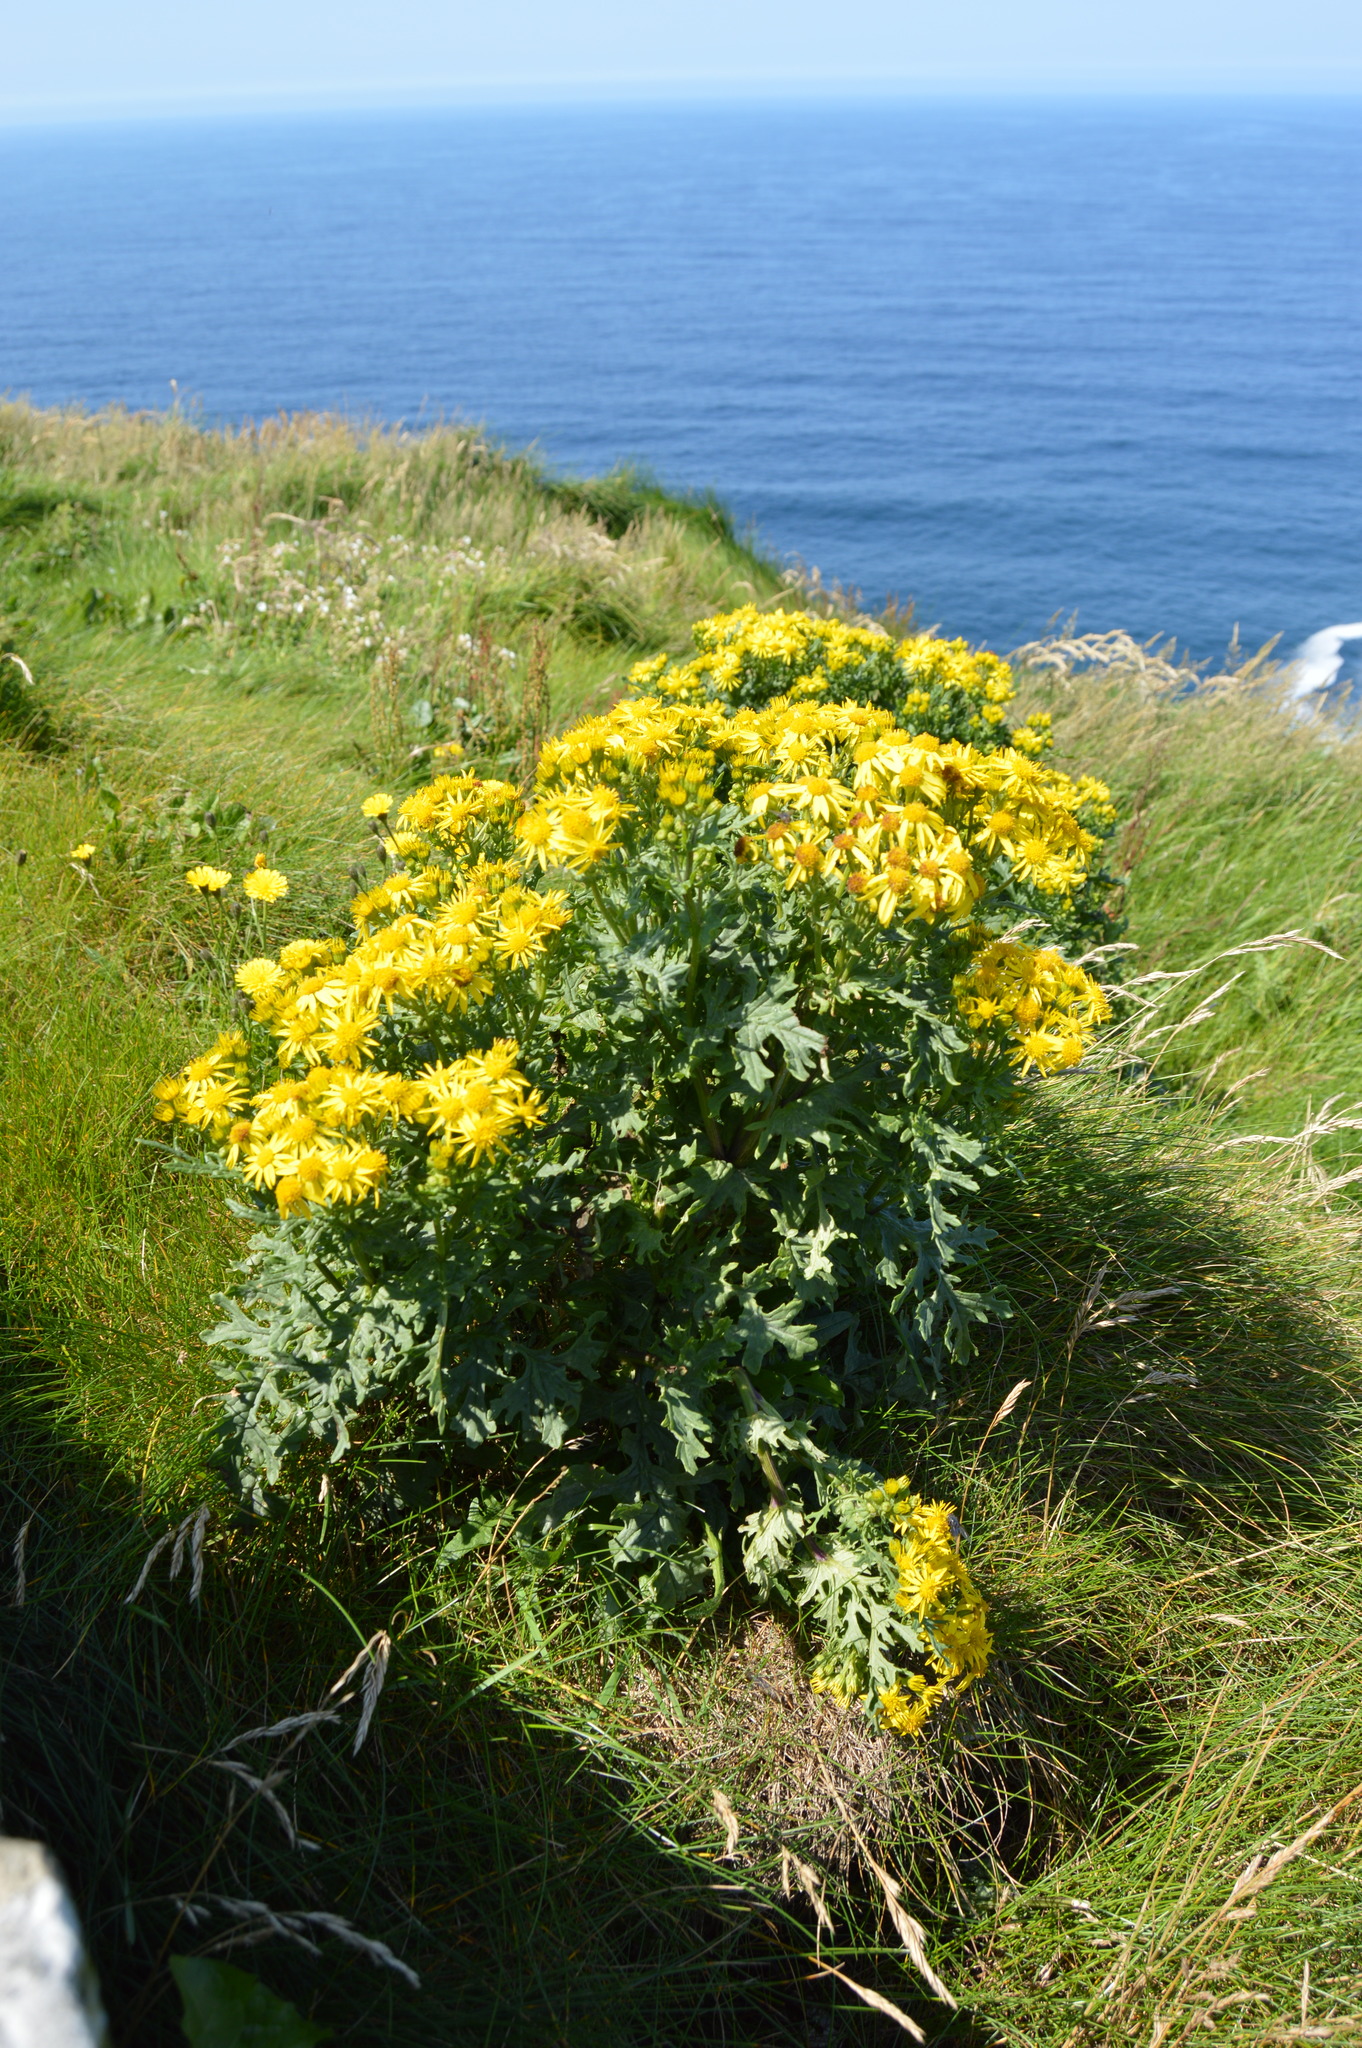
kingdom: Plantae
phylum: Tracheophyta
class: Magnoliopsida
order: Asterales
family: Asteraceae
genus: Jacobaea
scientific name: Jacobaea vulgaris
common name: Stinking willie
